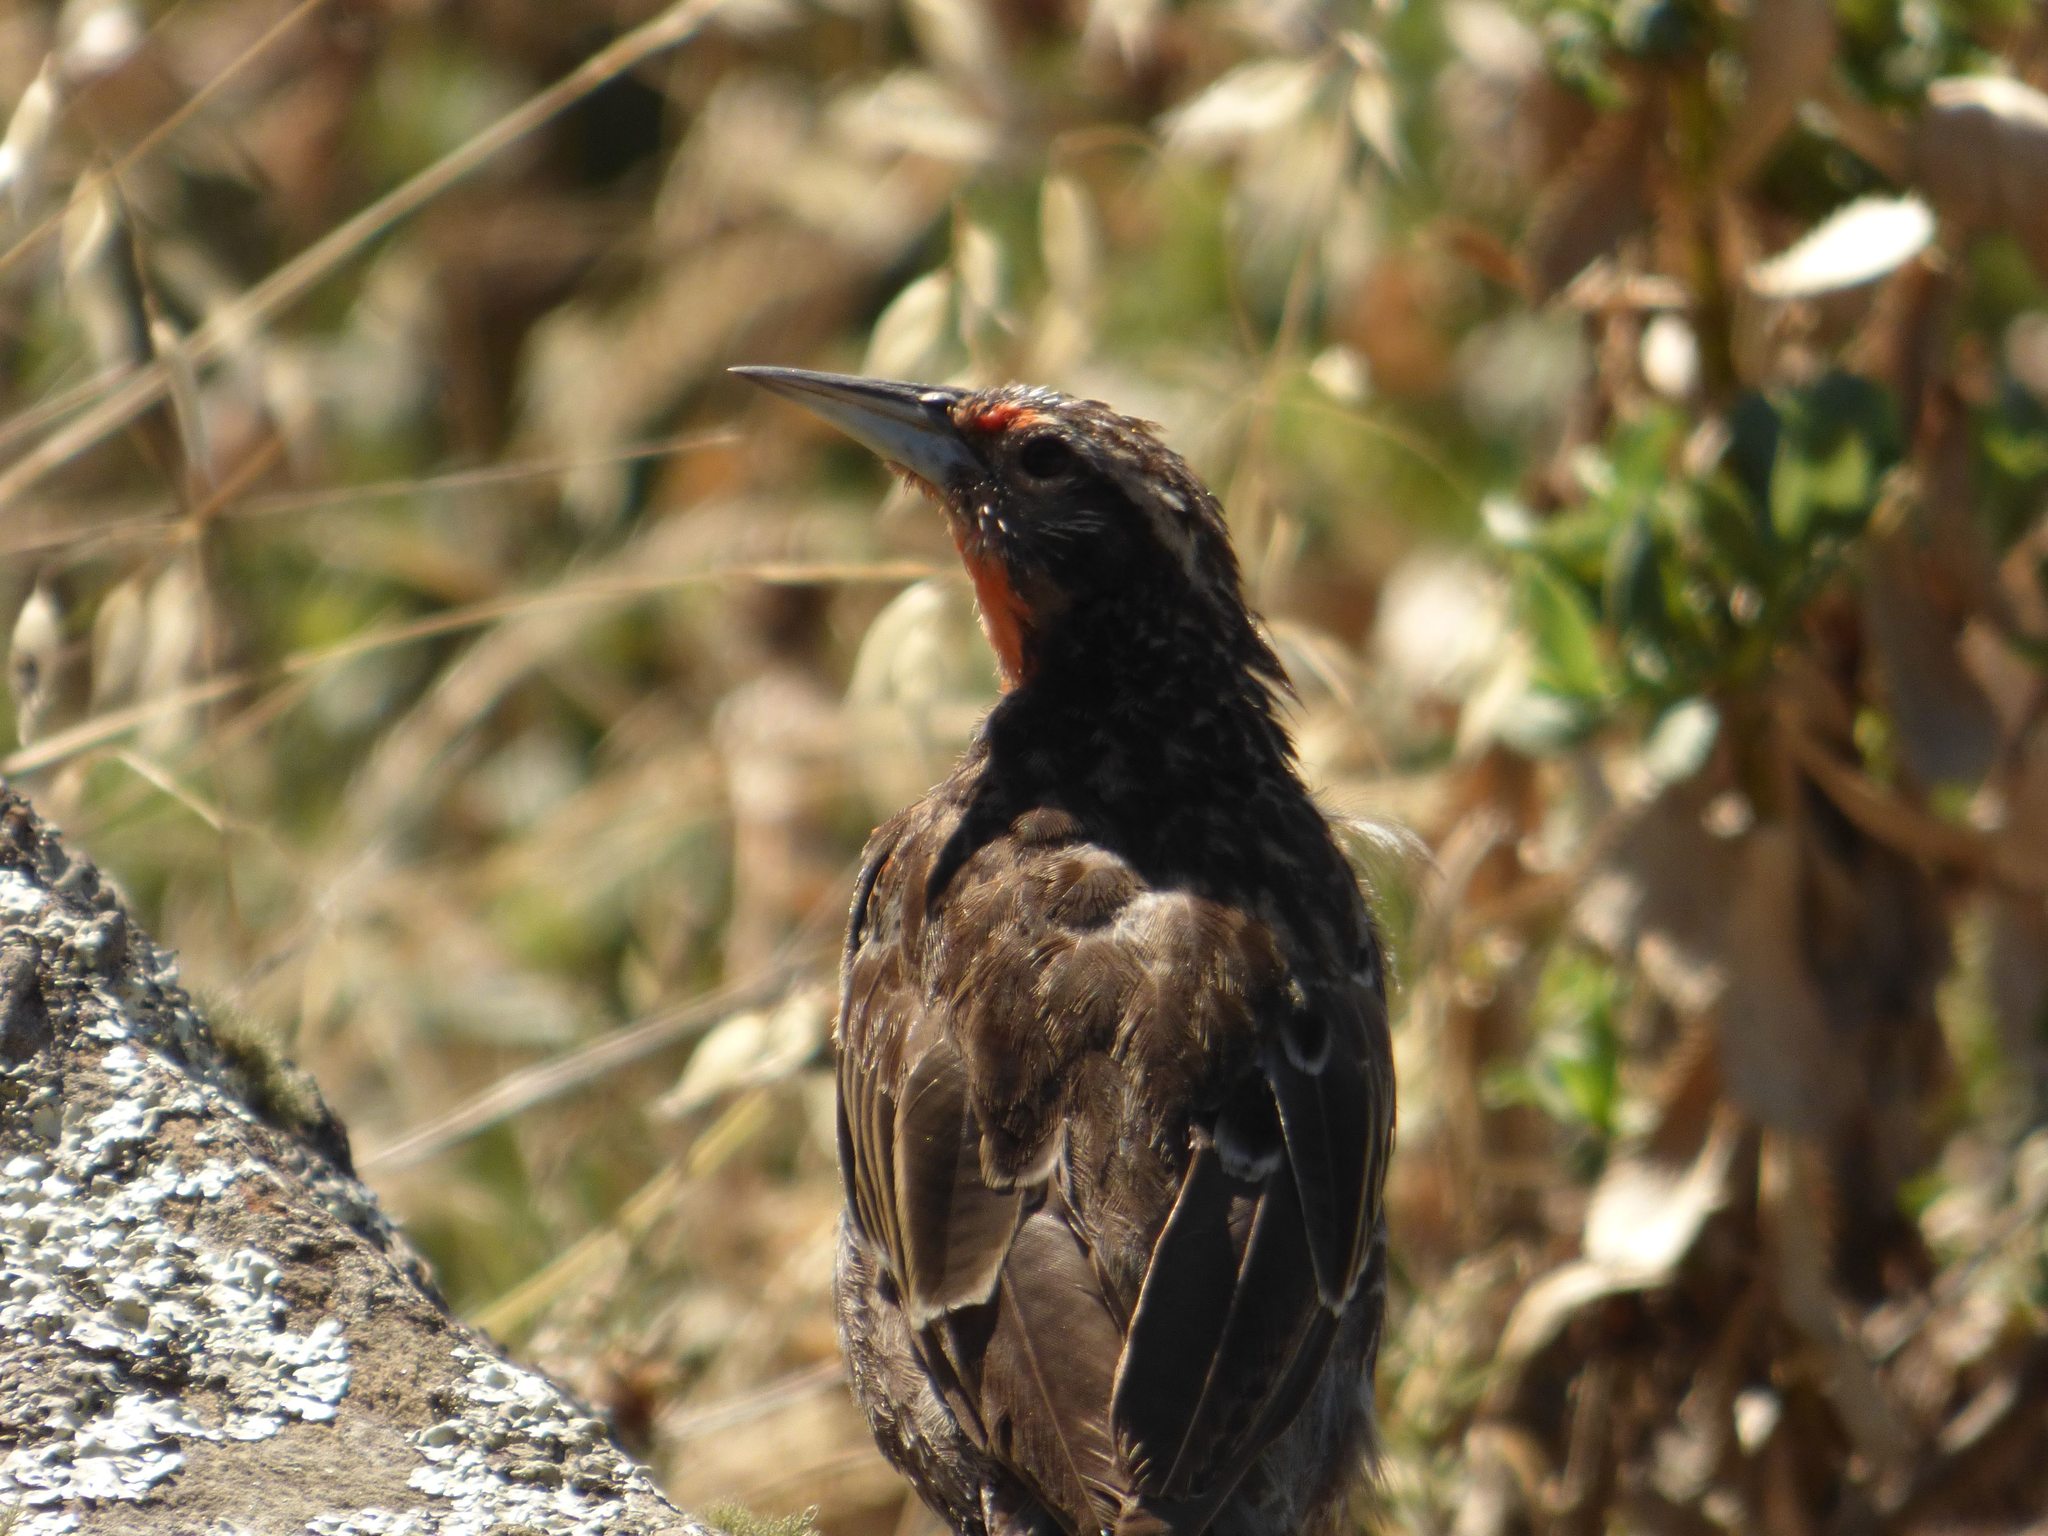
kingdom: Animalia
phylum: Chordata
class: Aves
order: Passeriformes
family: Icteridae
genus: Sturnella
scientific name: Sturnella loyca
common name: Long-tailed meadowlark
